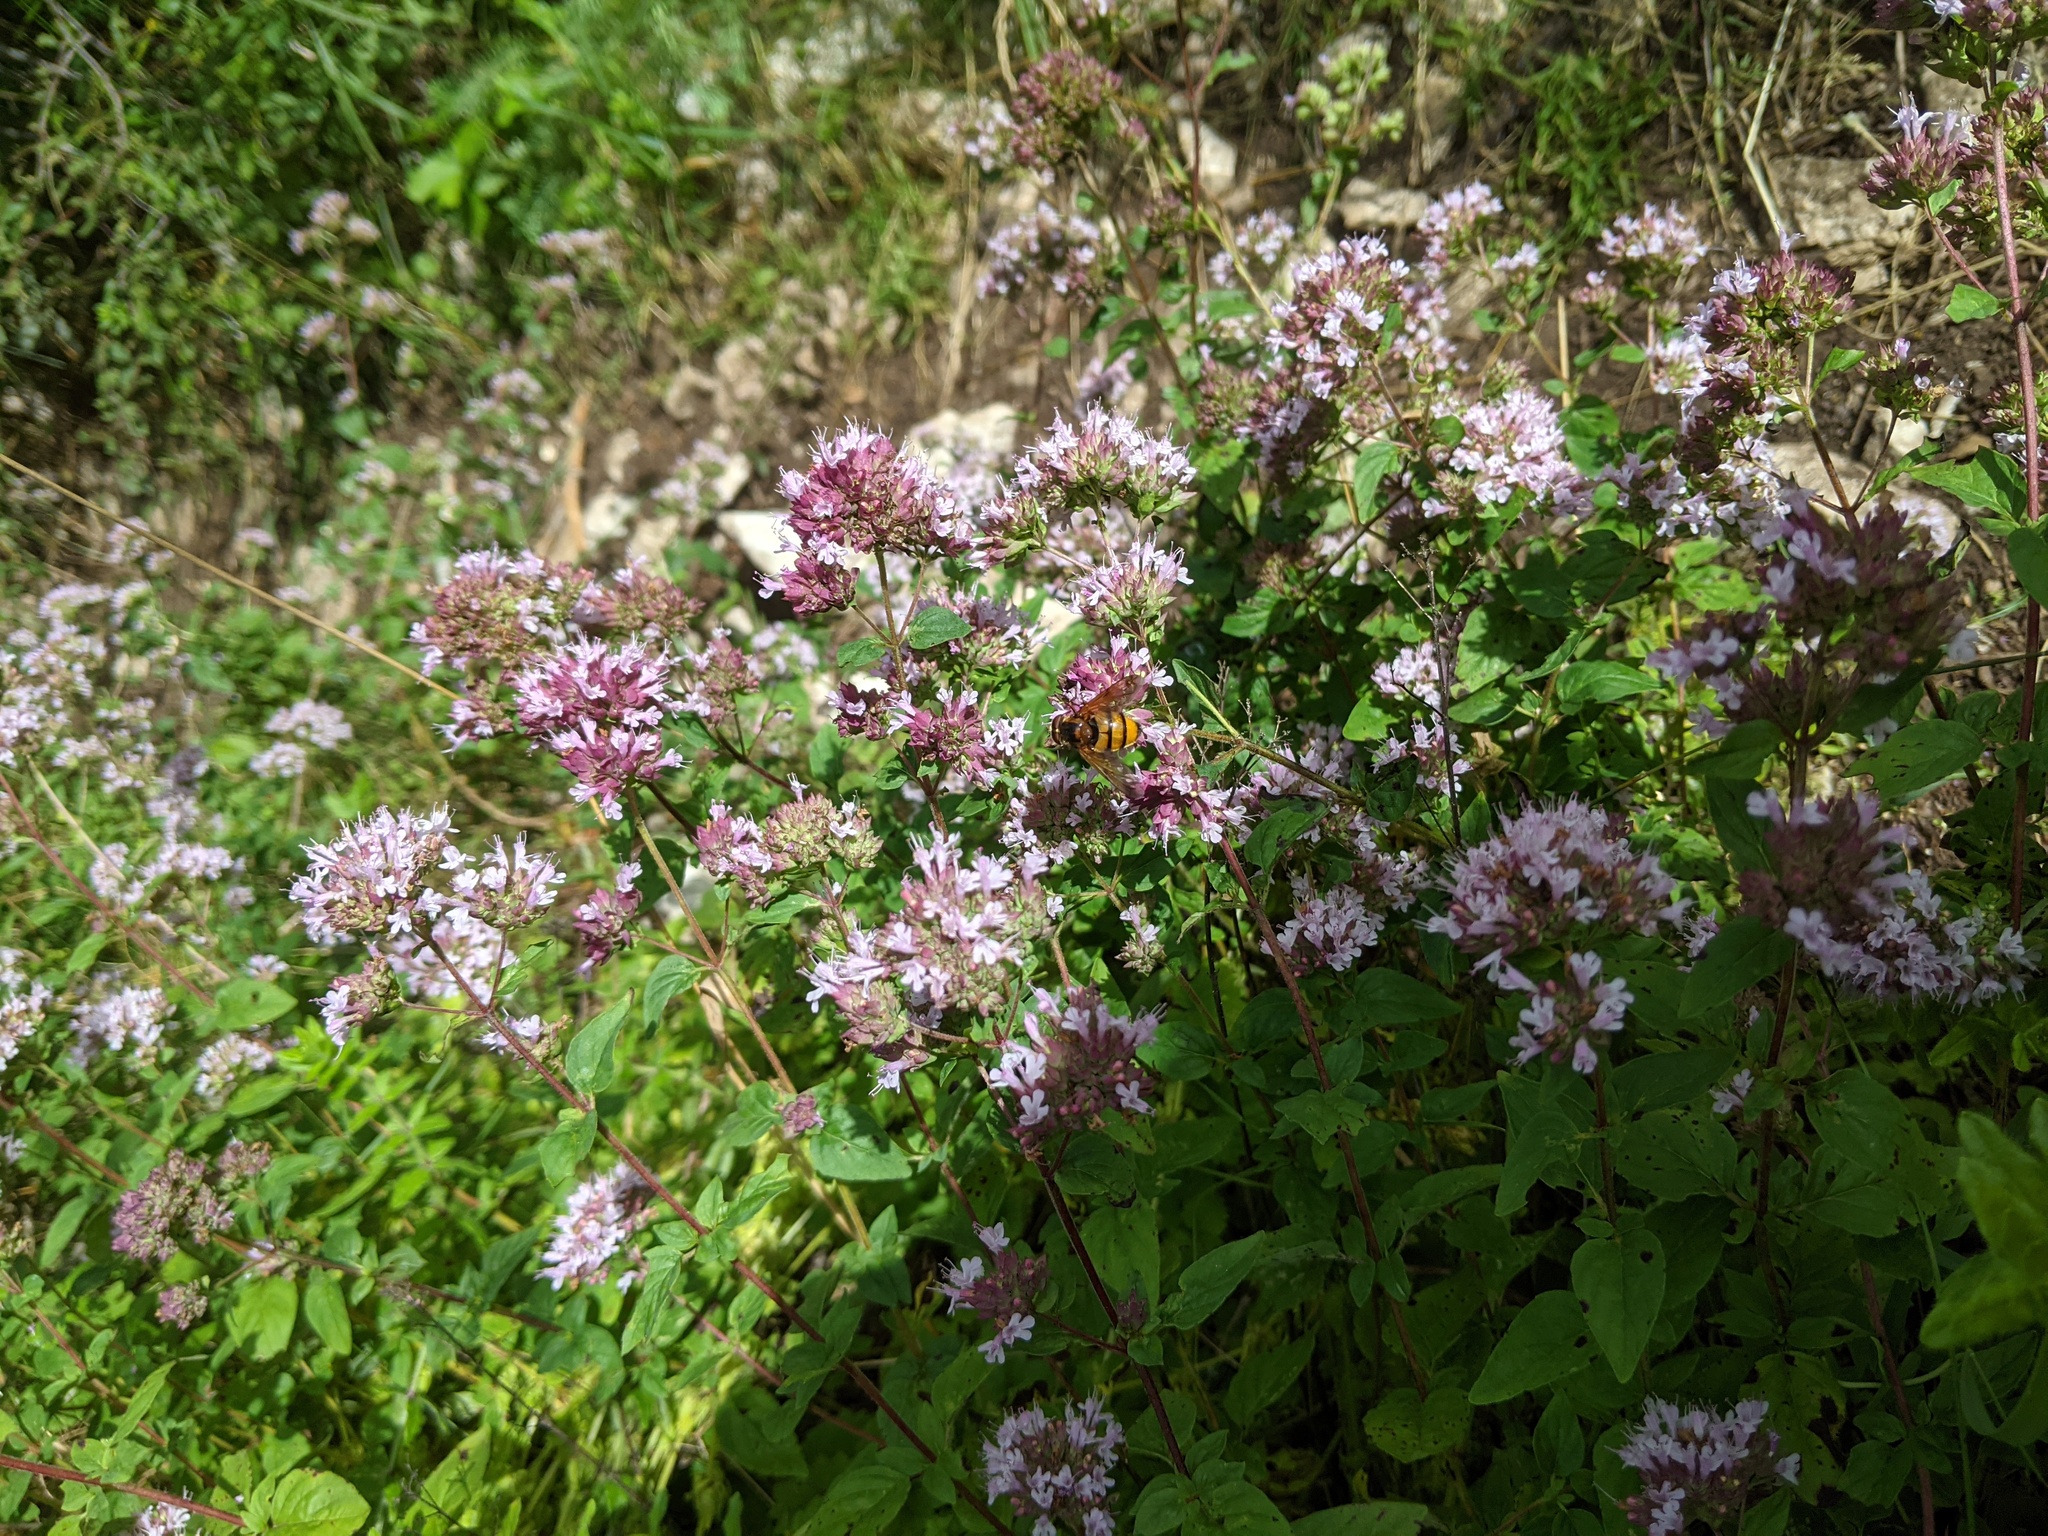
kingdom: Animalia
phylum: Arthropoda
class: Insecta
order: Diptera
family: Syrphidae
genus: Volucella
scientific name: Volucella inanis
